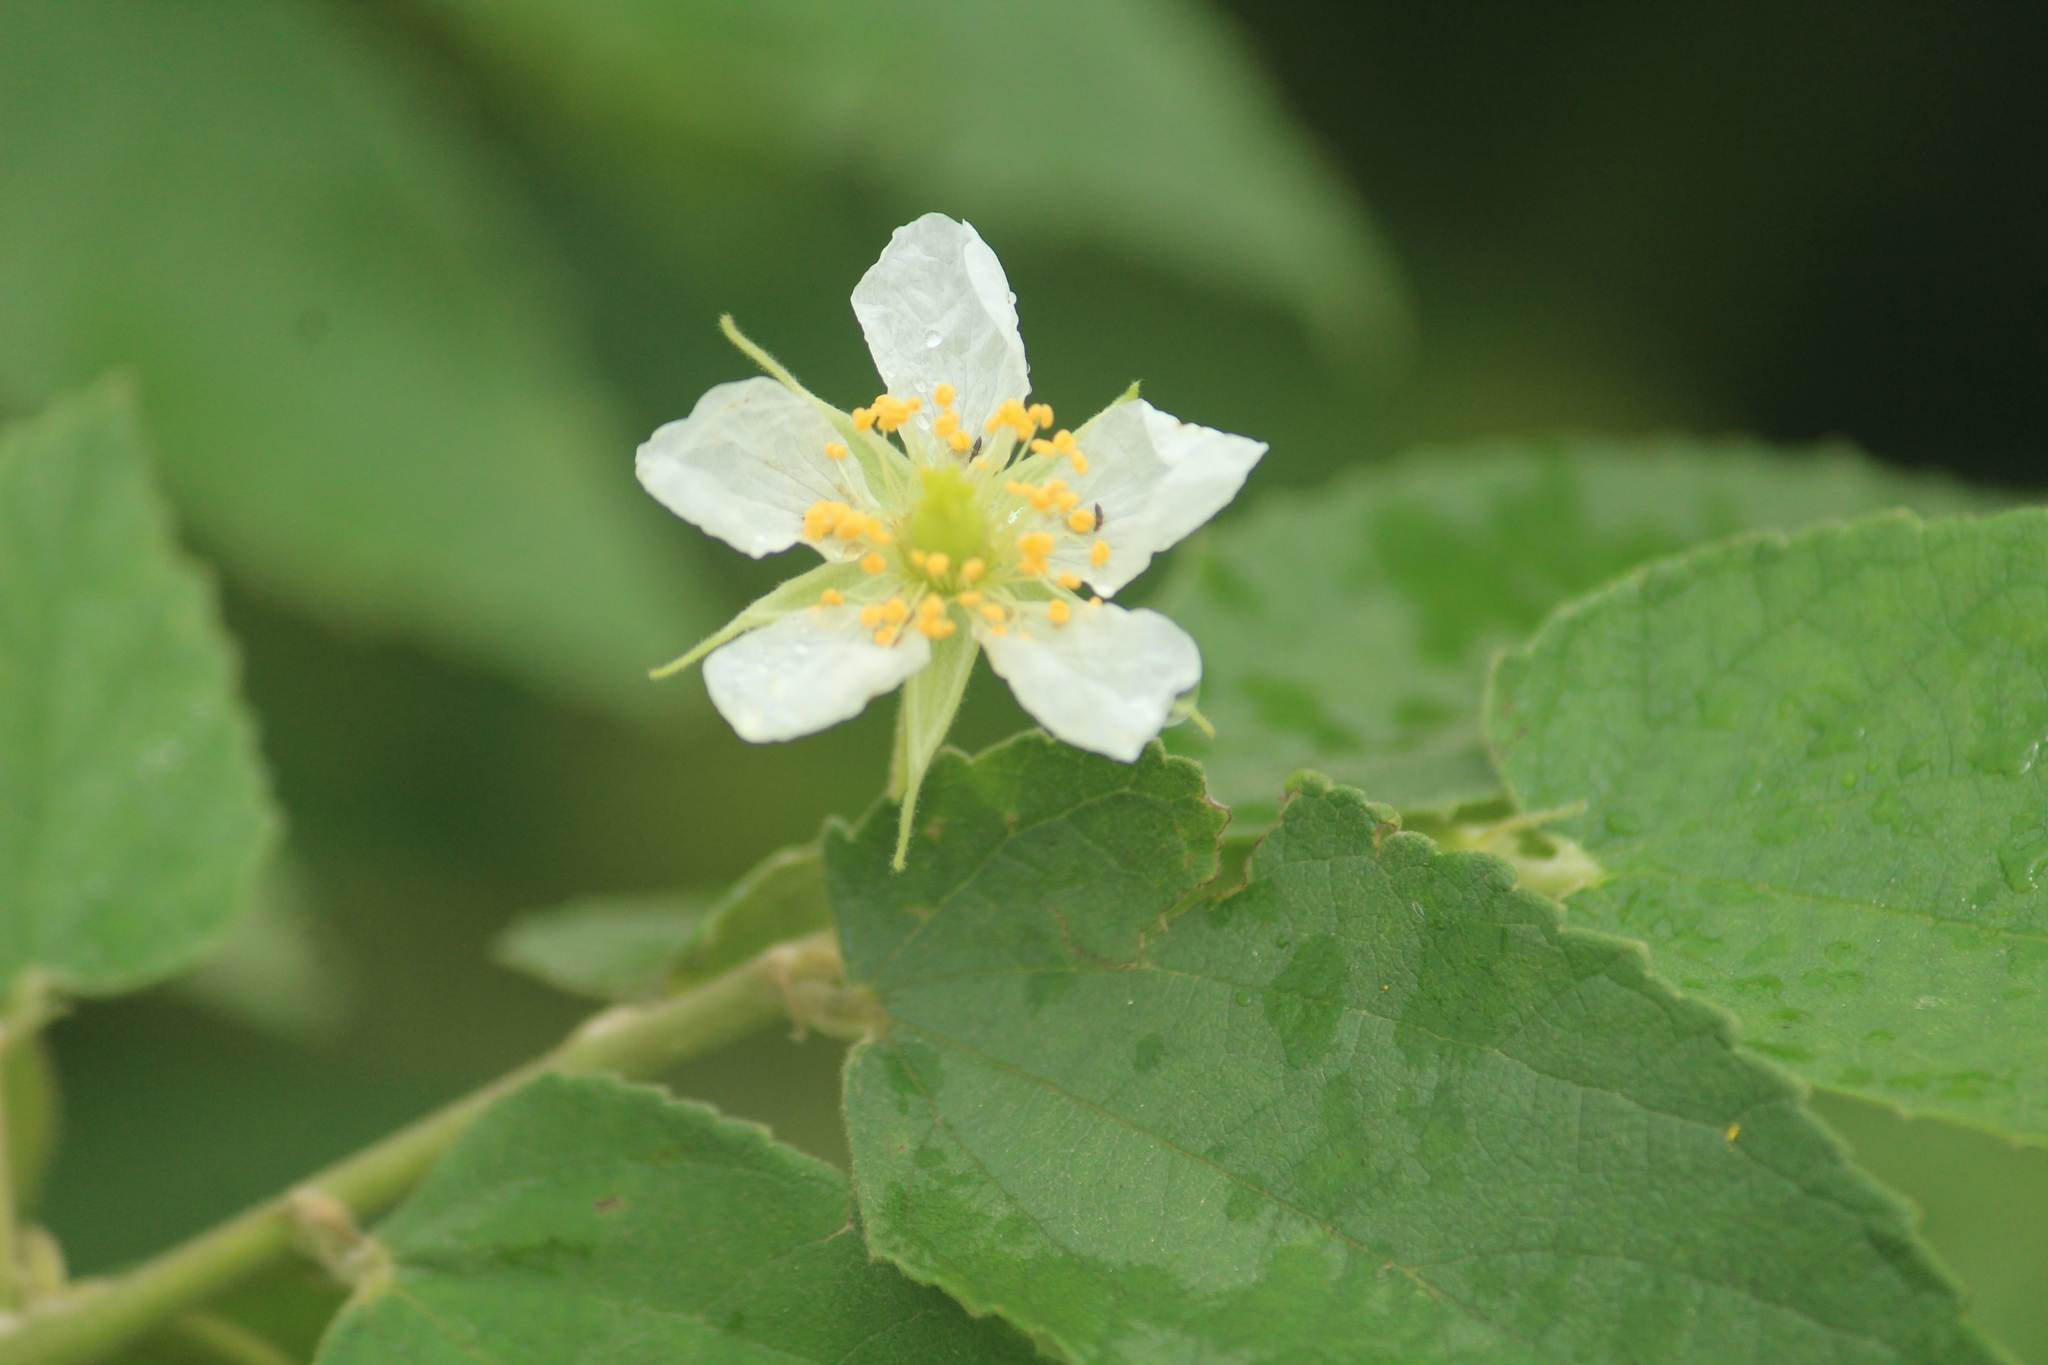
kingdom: Plantae
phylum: Tracheophyta
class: Magnoliopsida
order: Malvales
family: Muntingiaceae
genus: Muntingia
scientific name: Muntingia calabura
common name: Strawberrytree
